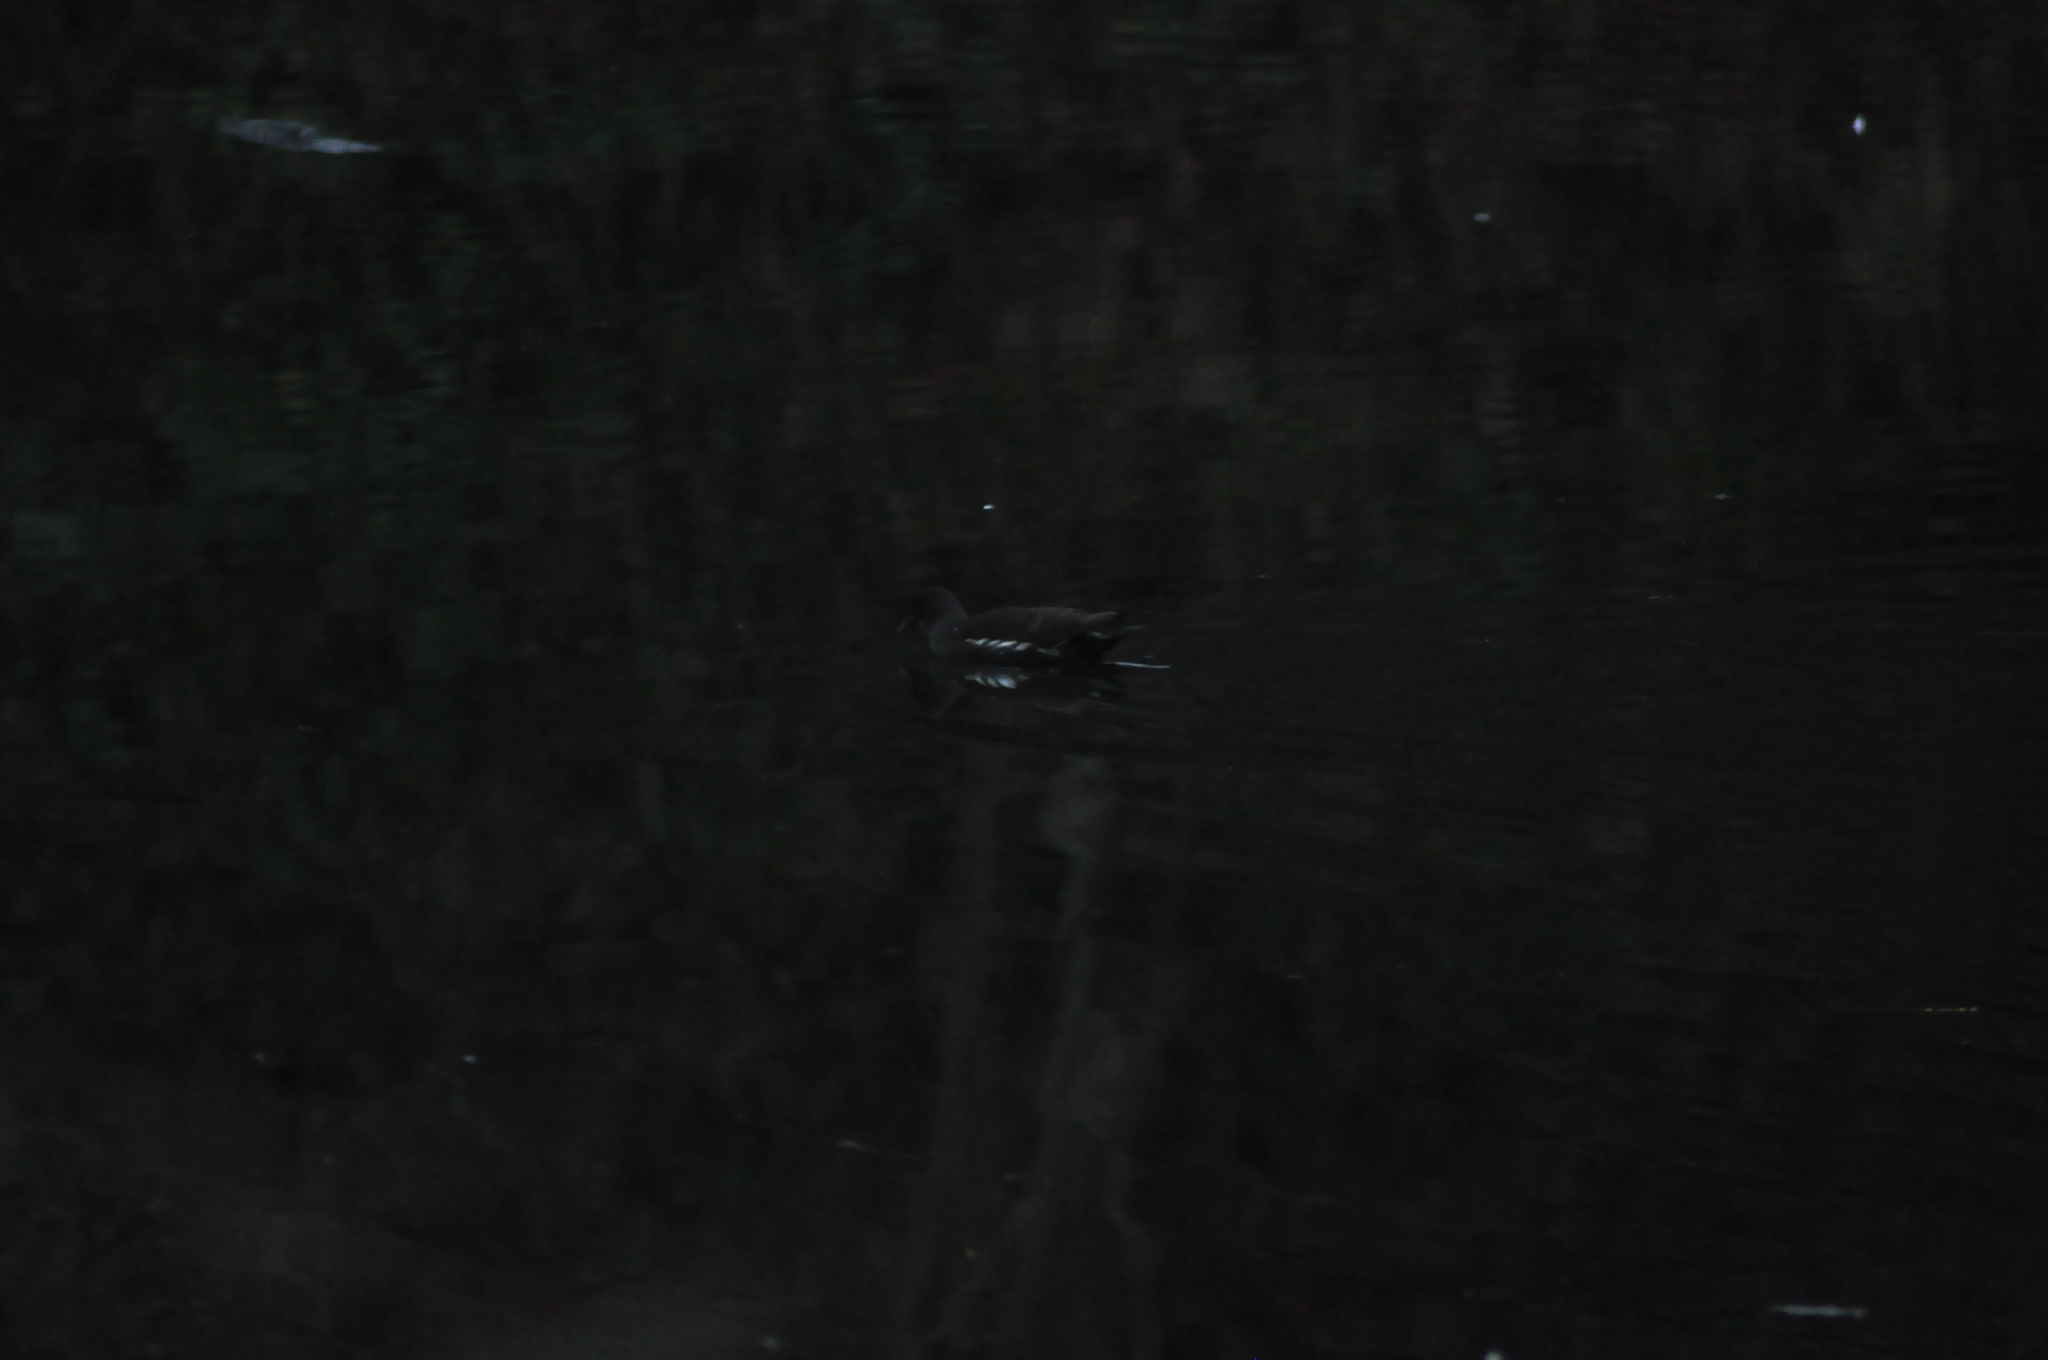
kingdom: Animalia
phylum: Chordata
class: Aves
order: Gruiformes
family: Rallidae
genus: Gallinula
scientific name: Gallinula chloropus
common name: Common moorhen
